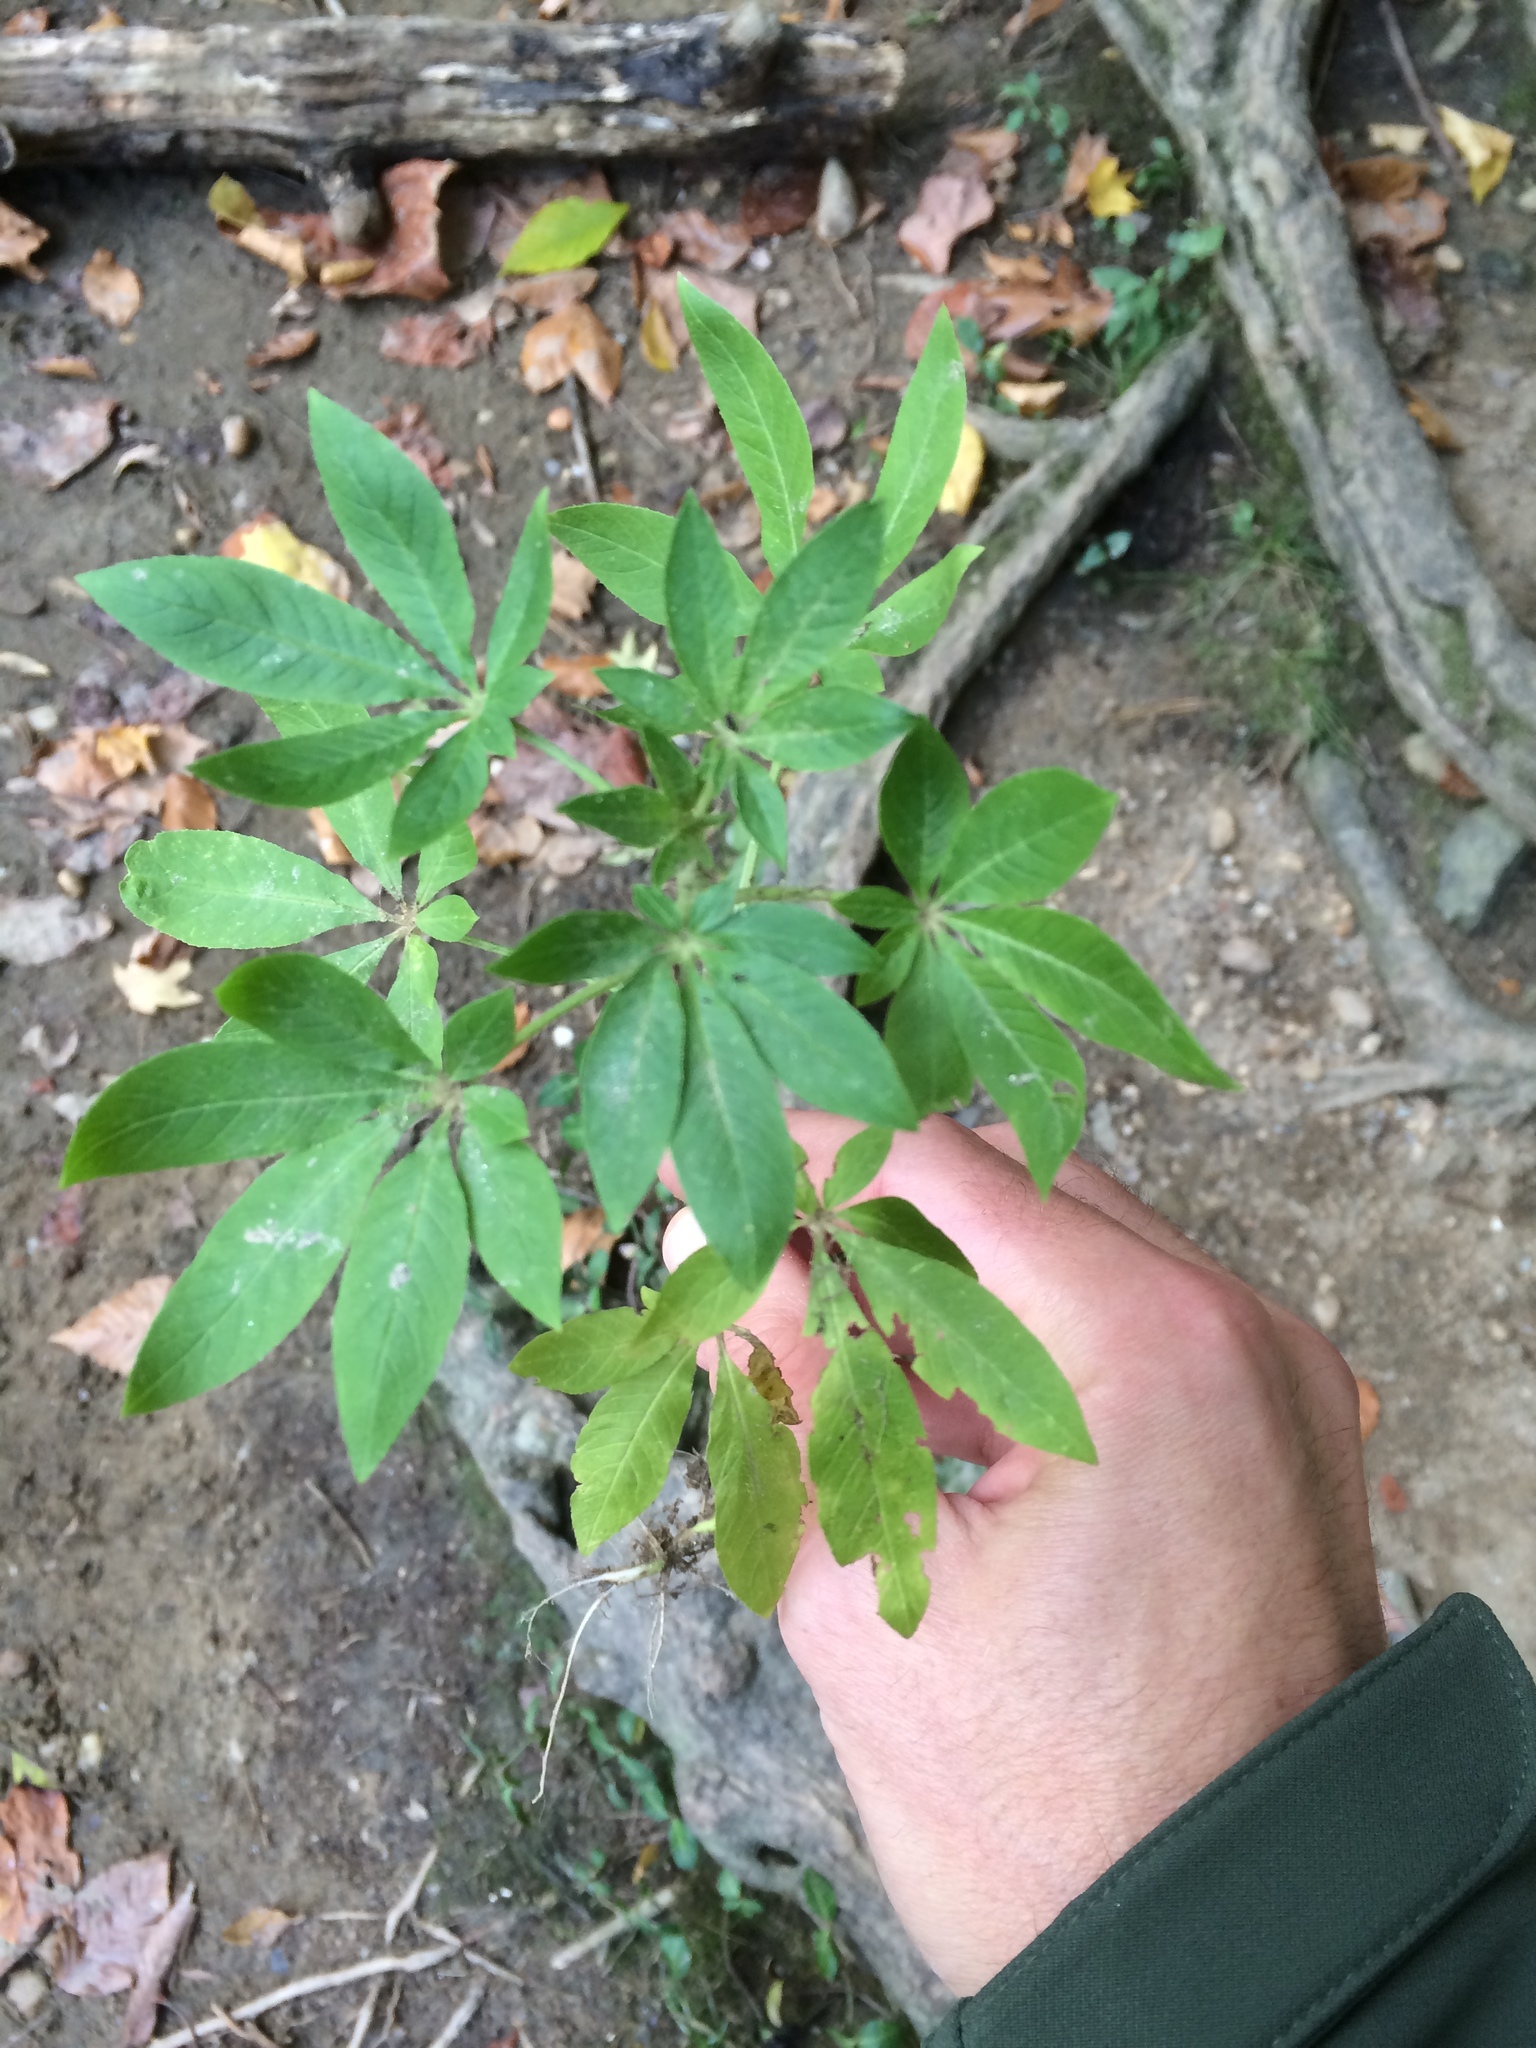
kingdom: Plantae
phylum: Tracheophyta
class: Magnoliopsida
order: Brassicales
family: Cleomaceae
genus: Tarenaya
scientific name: Tarenaya houtteana
